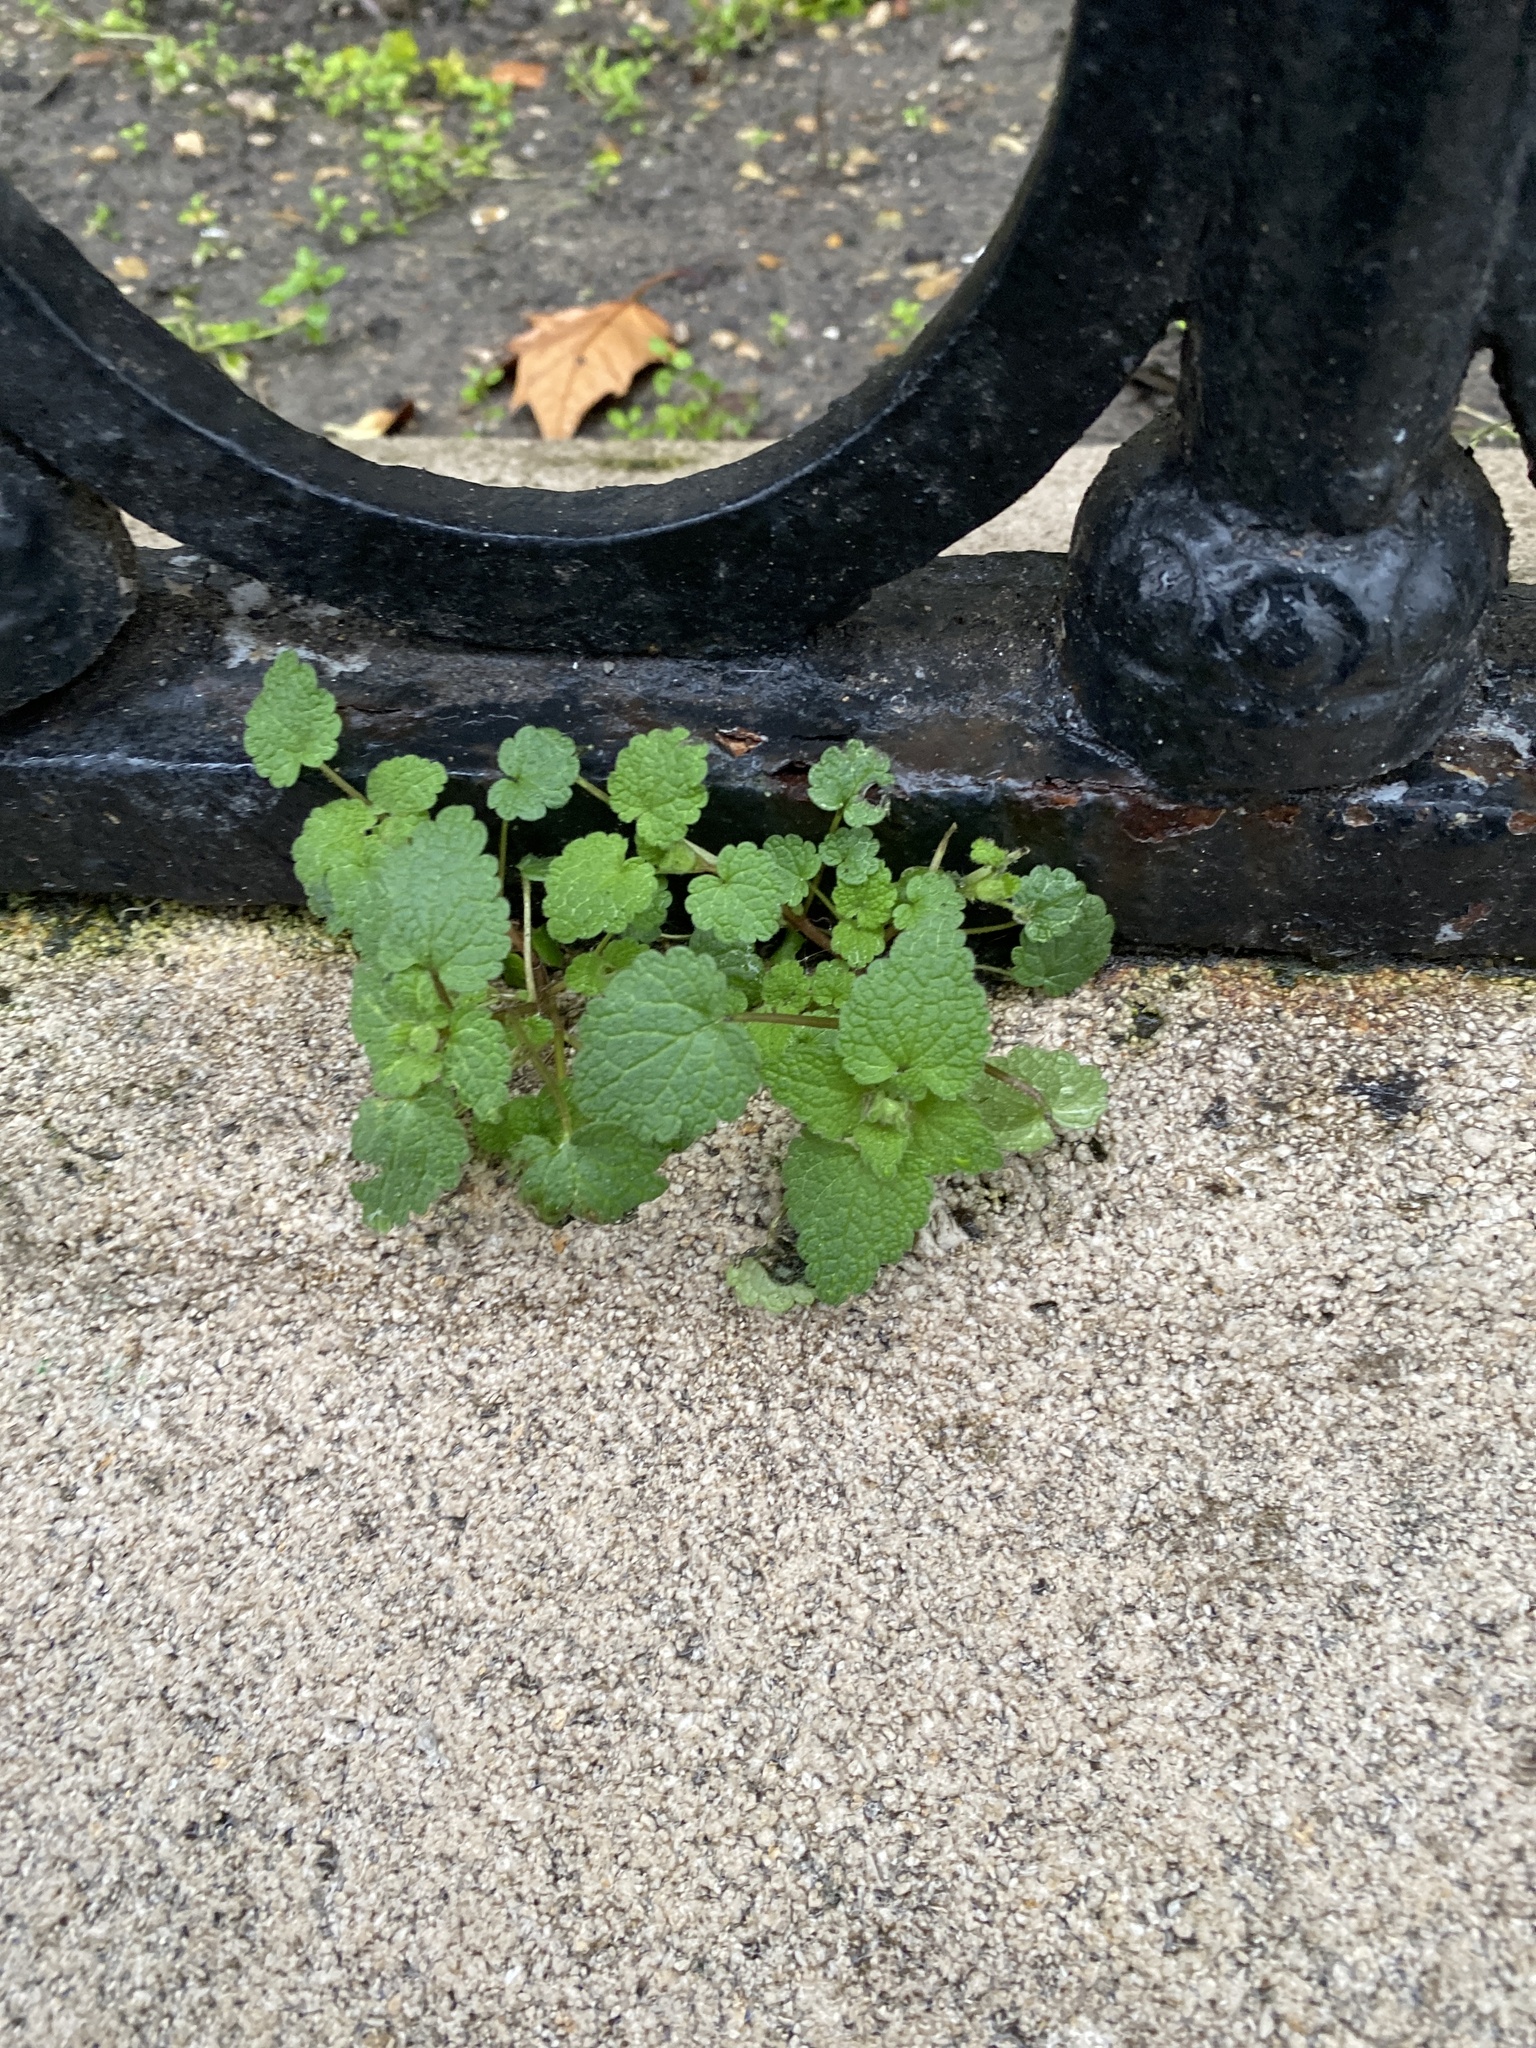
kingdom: Plantae
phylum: Tracheophyta
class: Magnoliopsida
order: Lamiales
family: Lamiaceae
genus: Lamium
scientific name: Lamium purpureum
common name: Red dead-nettle
